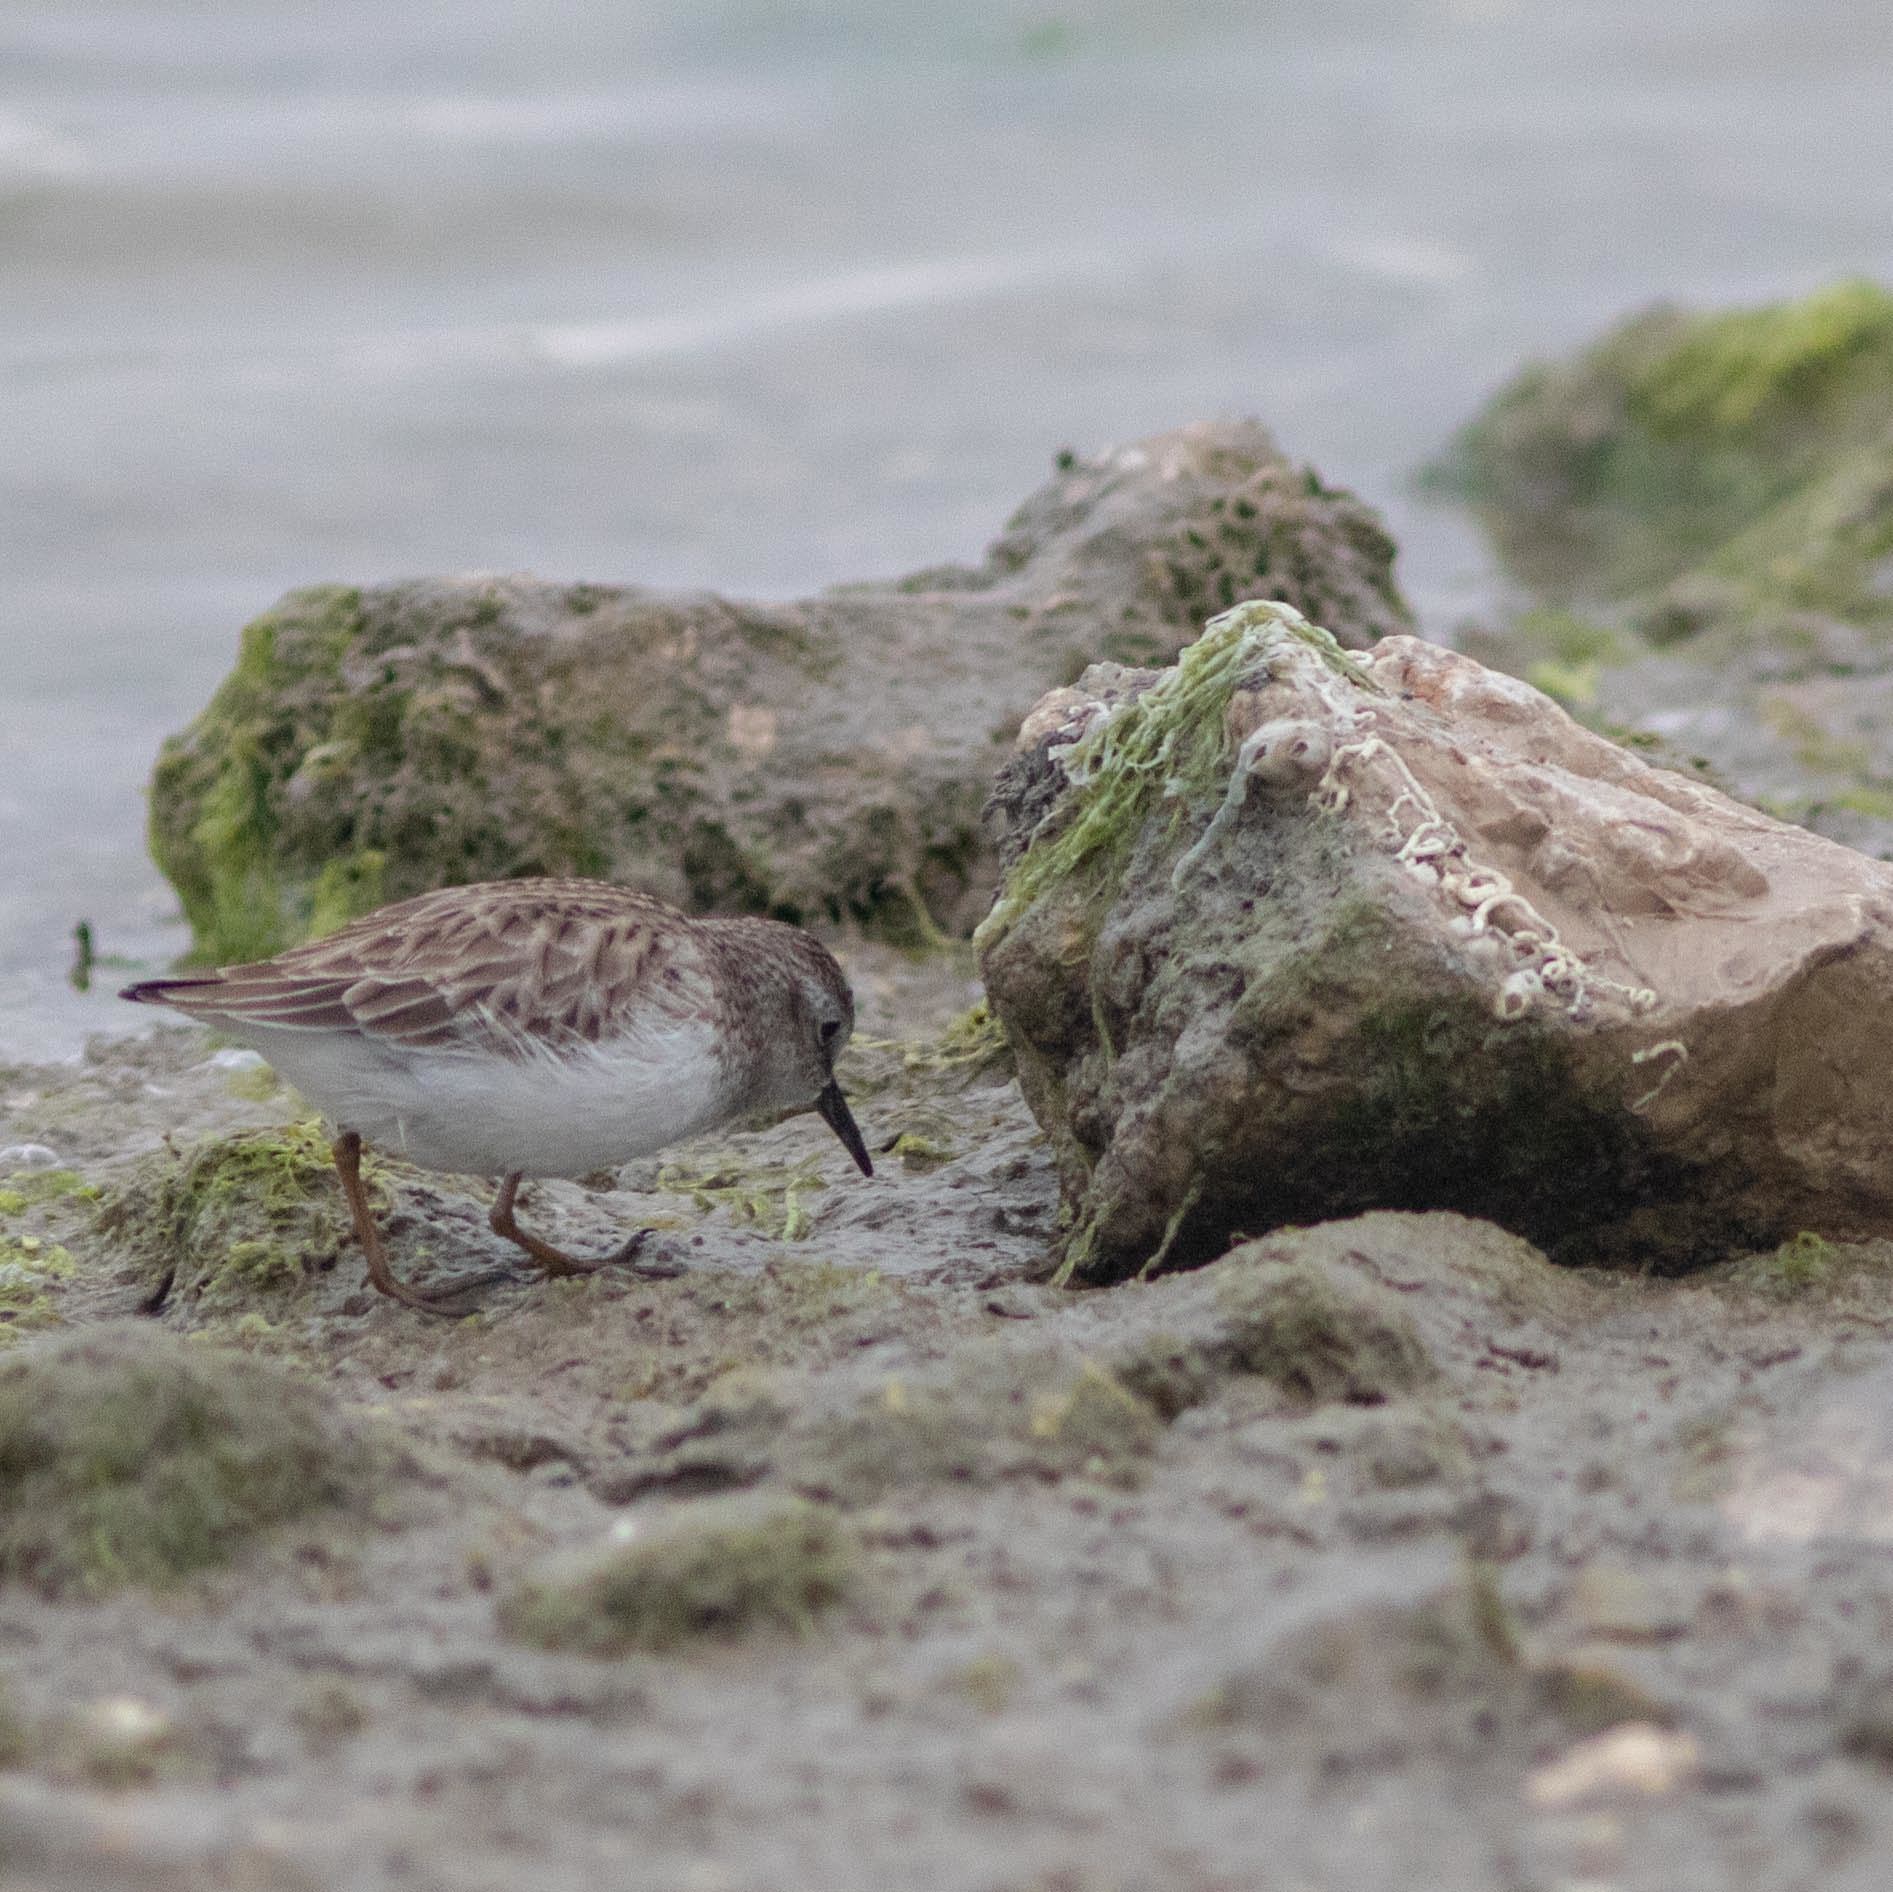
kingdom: Animalia
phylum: Chordata
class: Aves
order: Charadriiformes
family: Scolopacidae
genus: Calidris
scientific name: Calidris minutilla
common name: Least sandpiper
